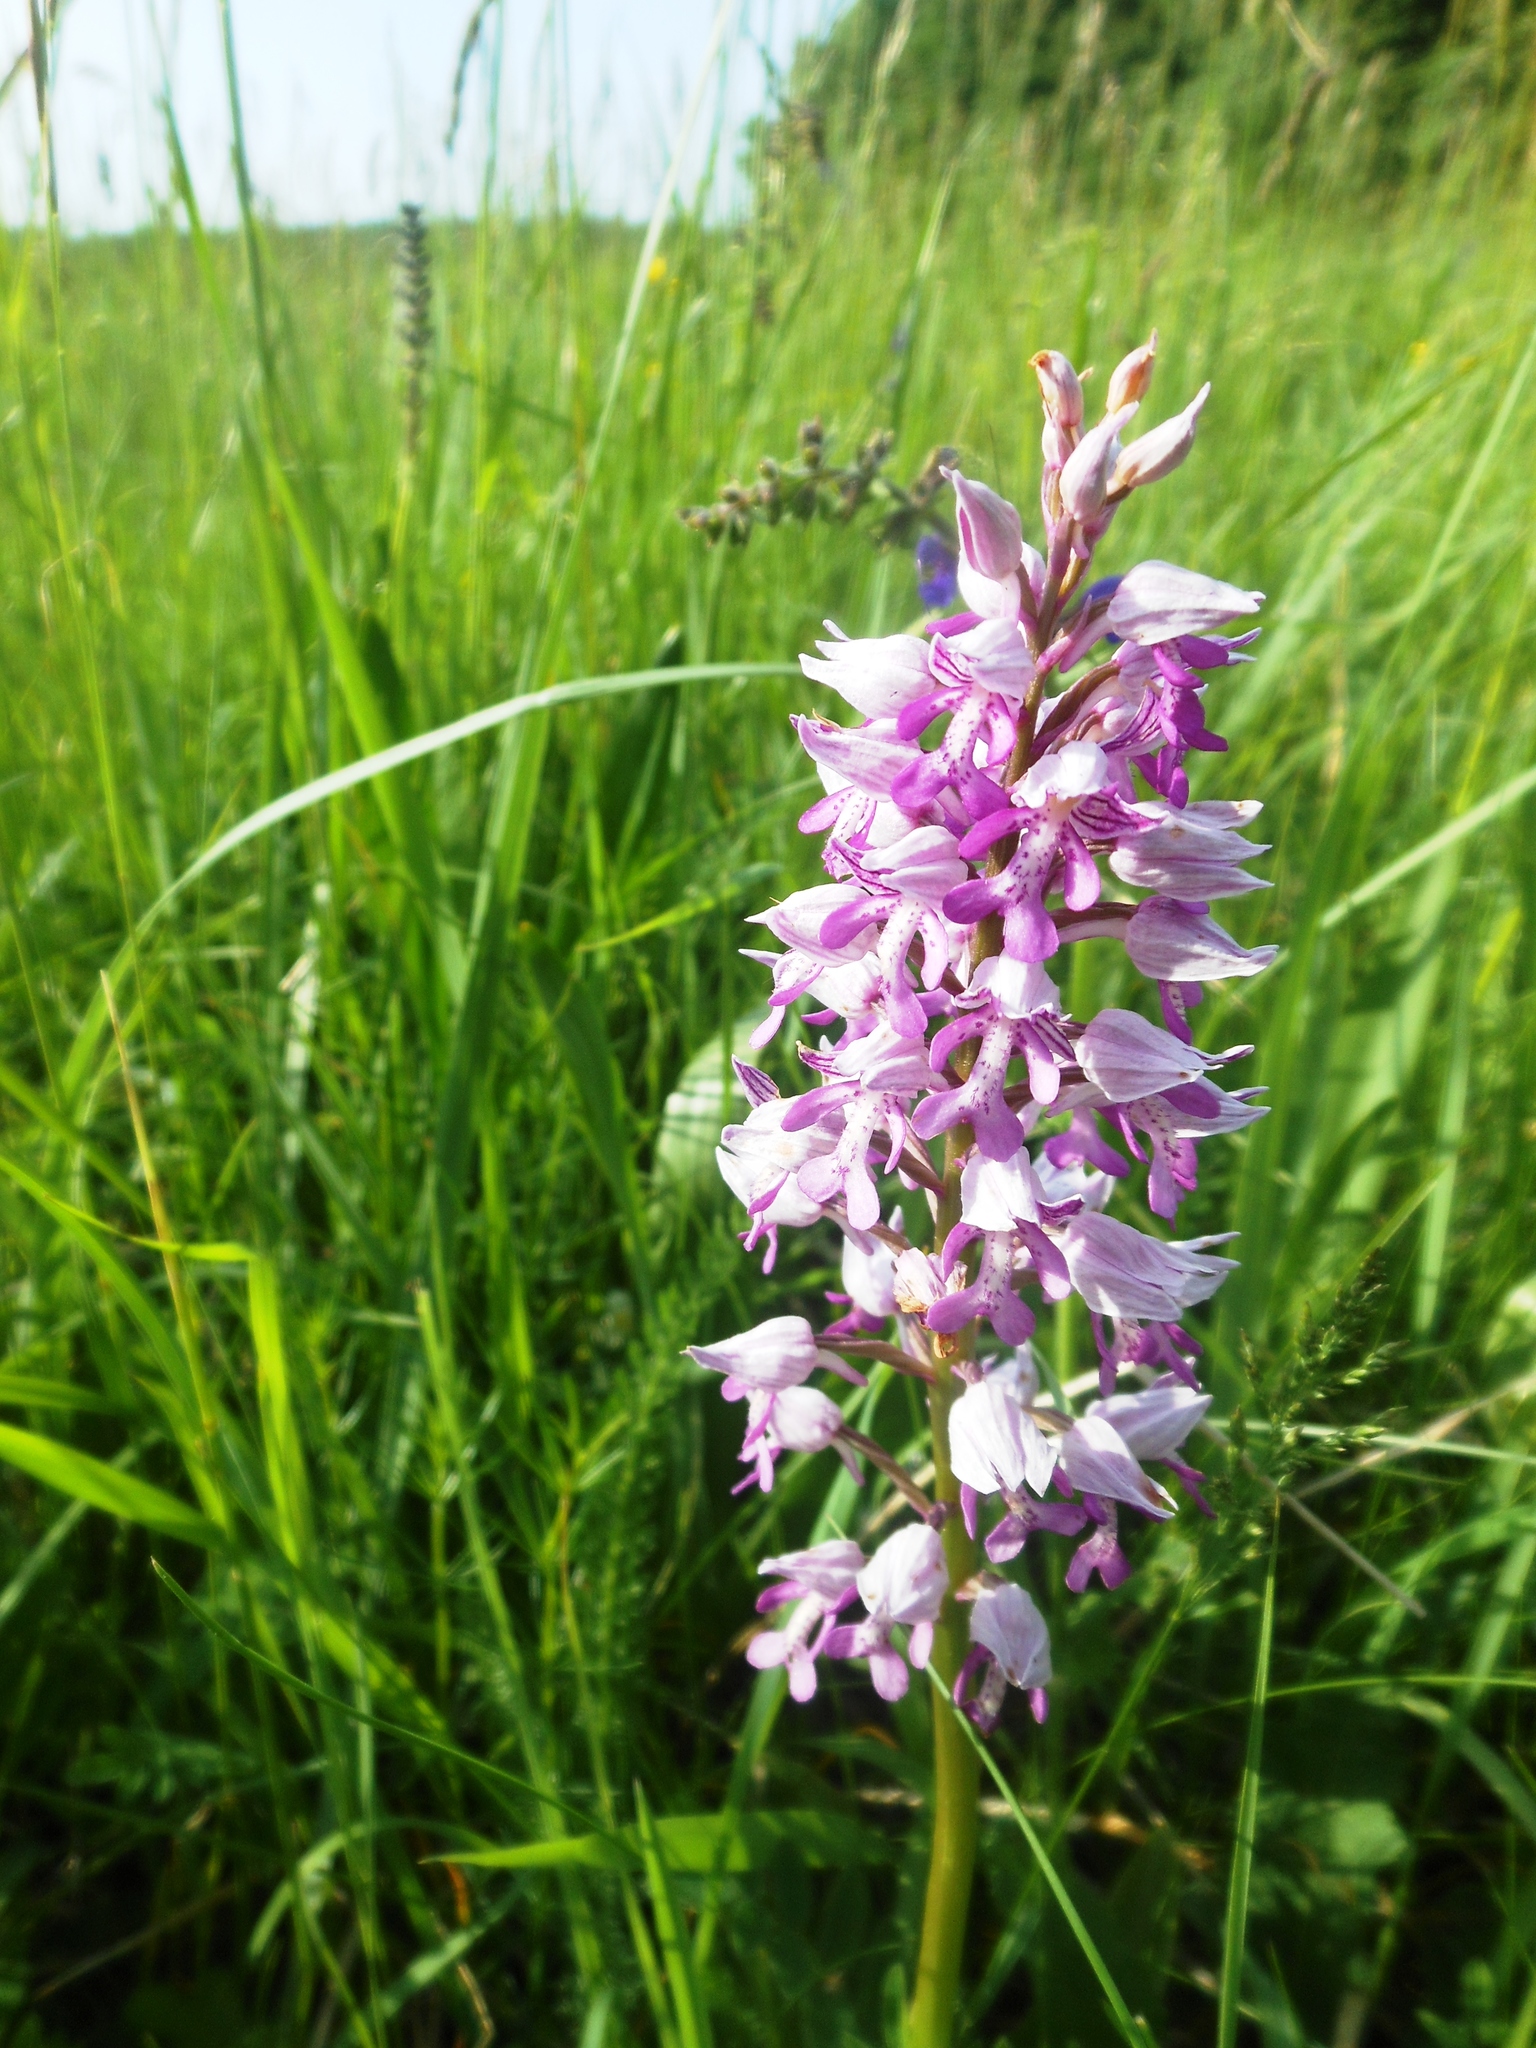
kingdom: Plantae
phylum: Tracheophyta
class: Liliopsida
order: Asparagales
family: Orchidaceae
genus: Orchis
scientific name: Orchis militaris
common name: Military orchid
